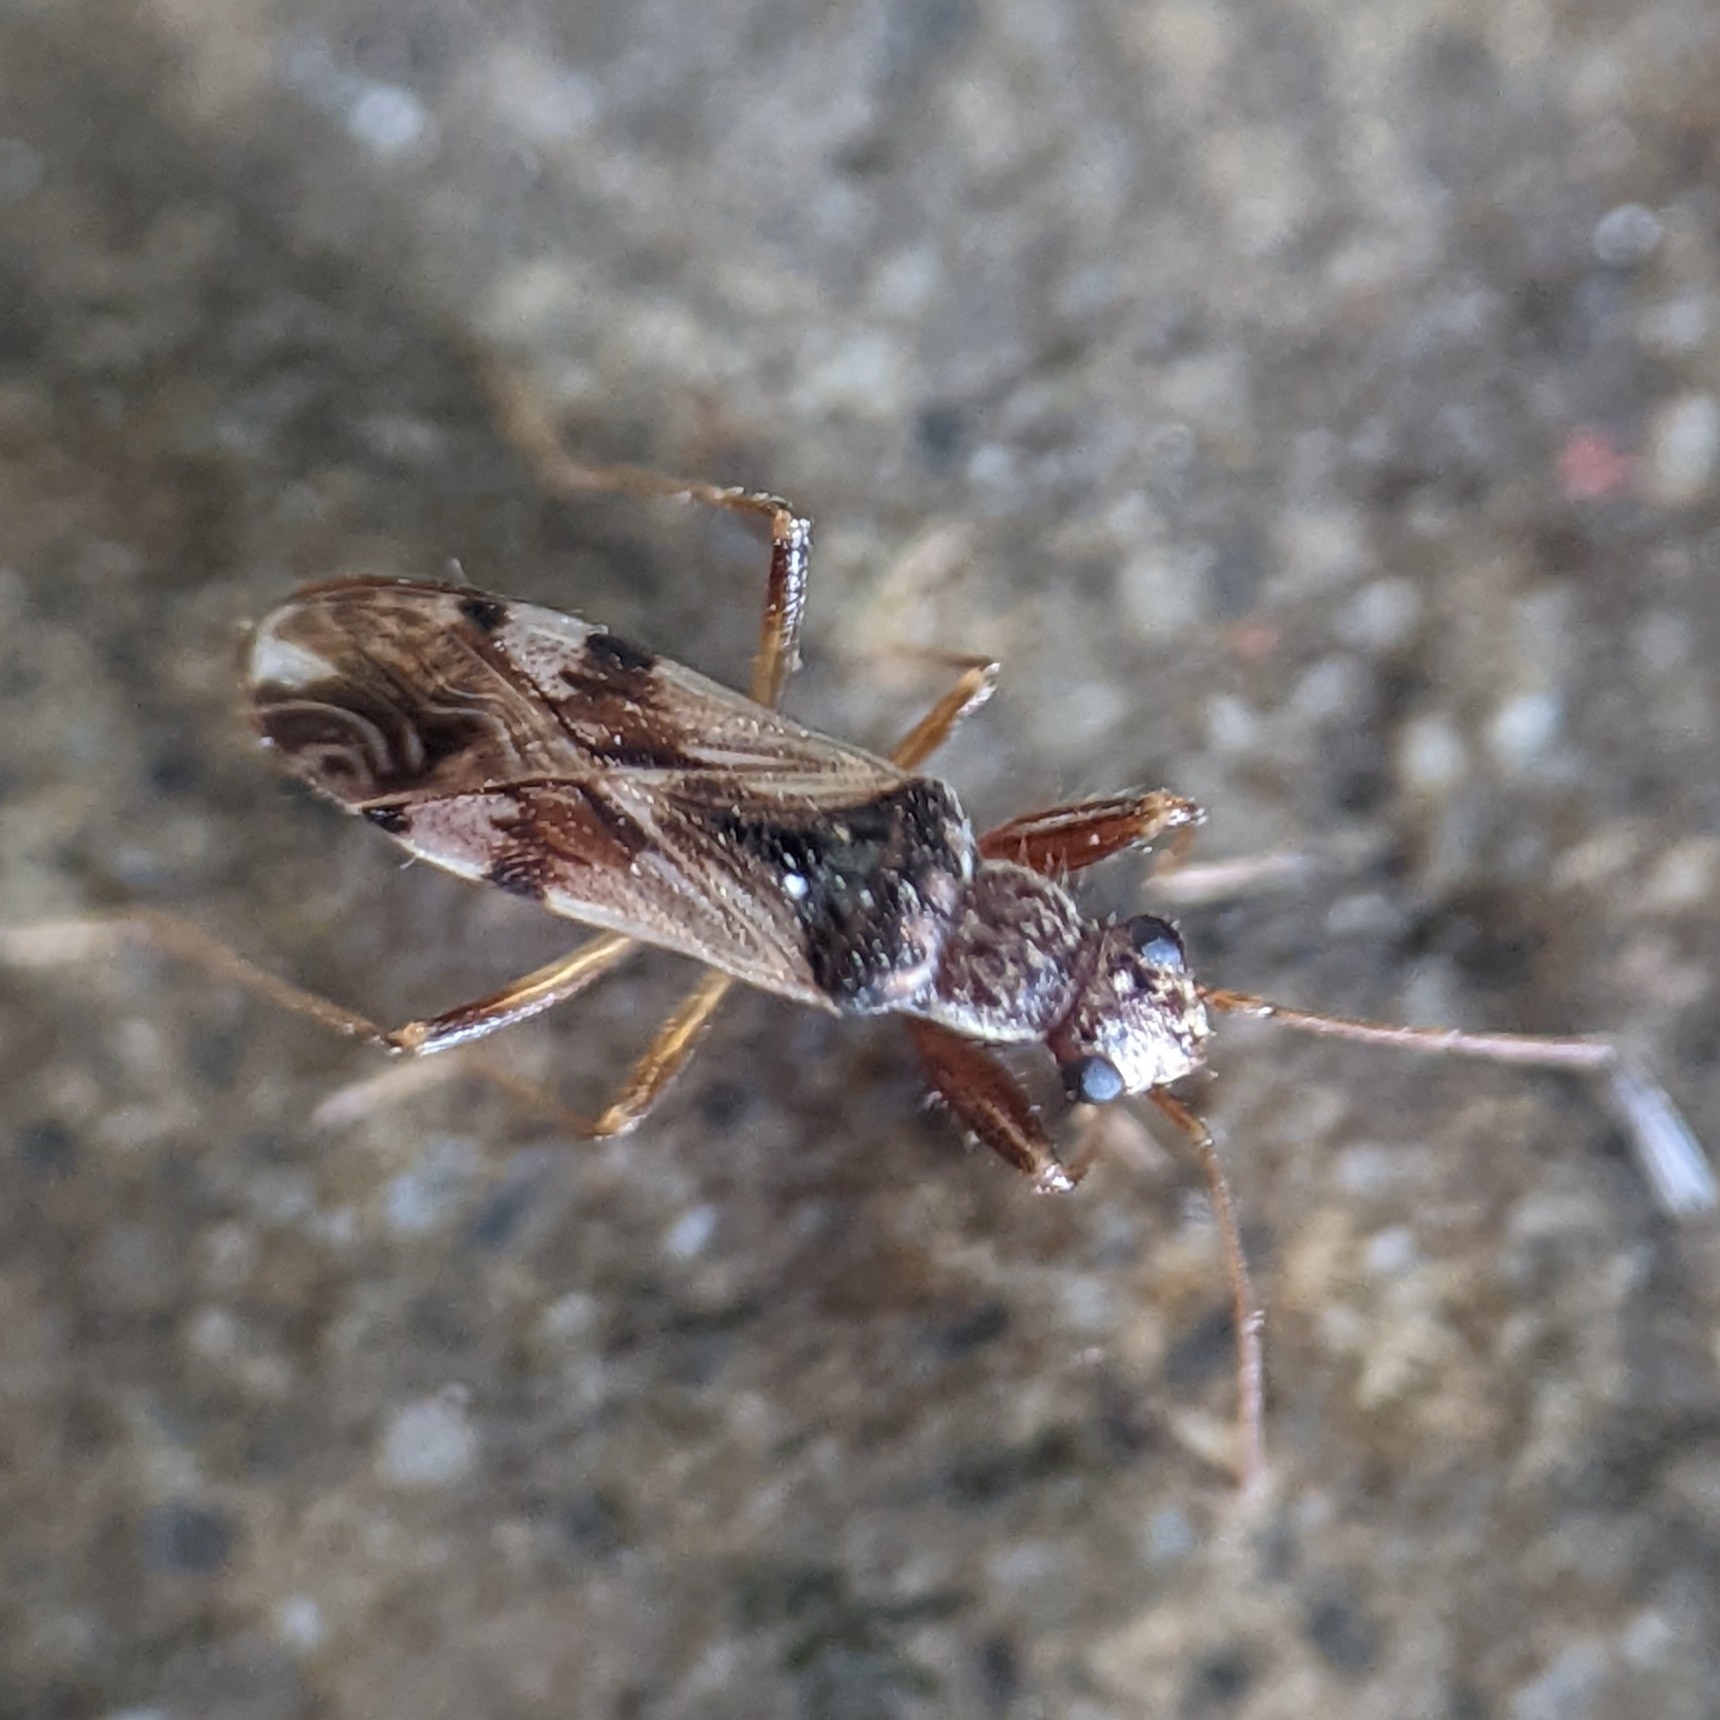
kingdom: Animalia
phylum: Arthropoda
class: Insecta
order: Hemiptera
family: Rhyparochromidae
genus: Neopamera
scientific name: Neopamera bilobata
